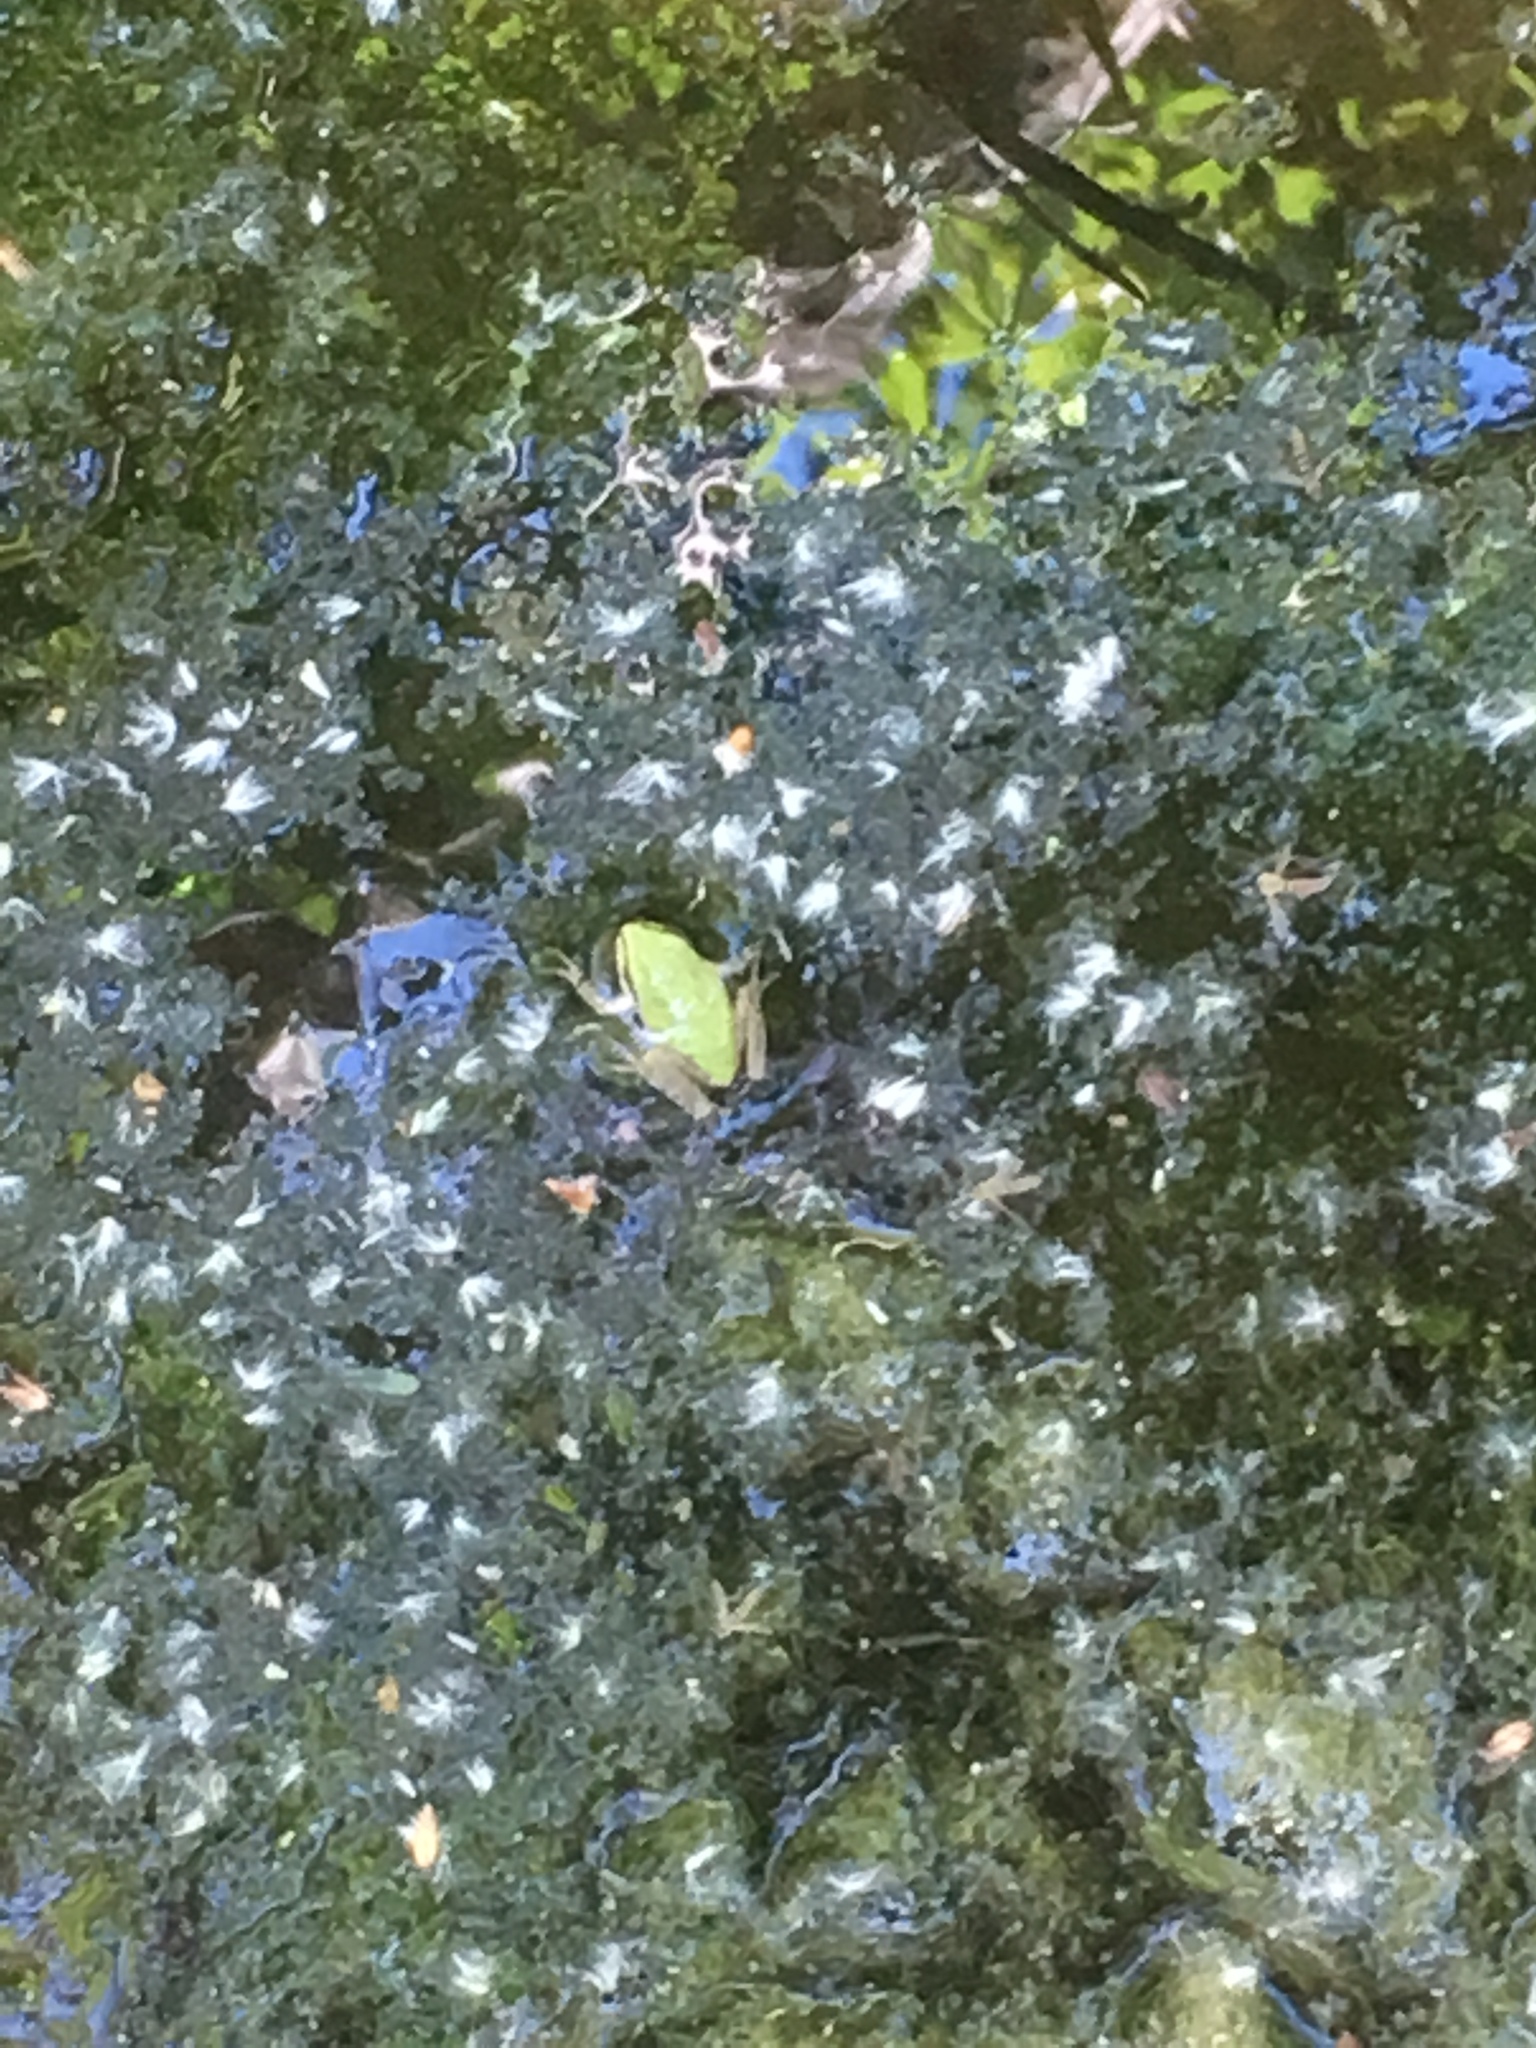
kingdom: Animalia
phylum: Chordata
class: Amphibia
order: Anura
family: Hylidae
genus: Pseudacris
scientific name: Pseudacris regilla
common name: Pacific chorus frog
